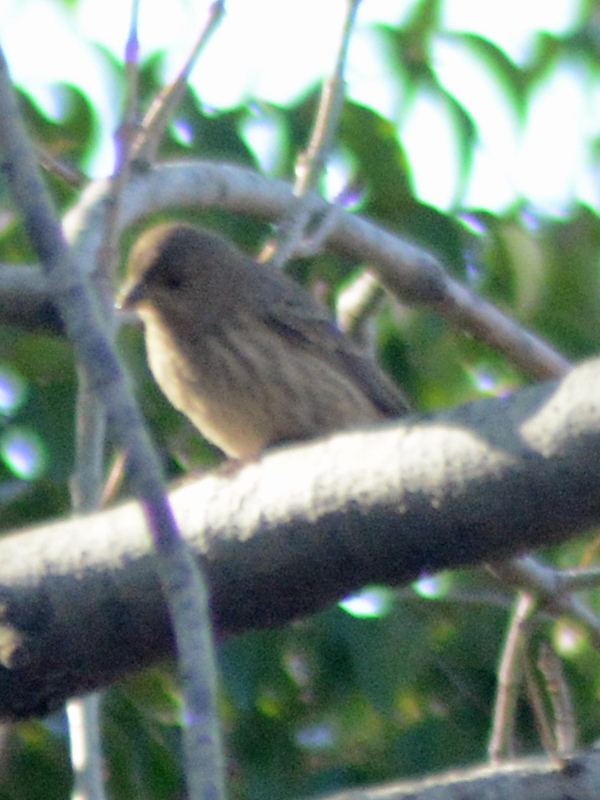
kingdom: Animalia
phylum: Chordata
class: Aves
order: Passeriformes
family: Fringillidae
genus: Haemorhous
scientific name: Haemorhous mexicanus
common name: House finch
